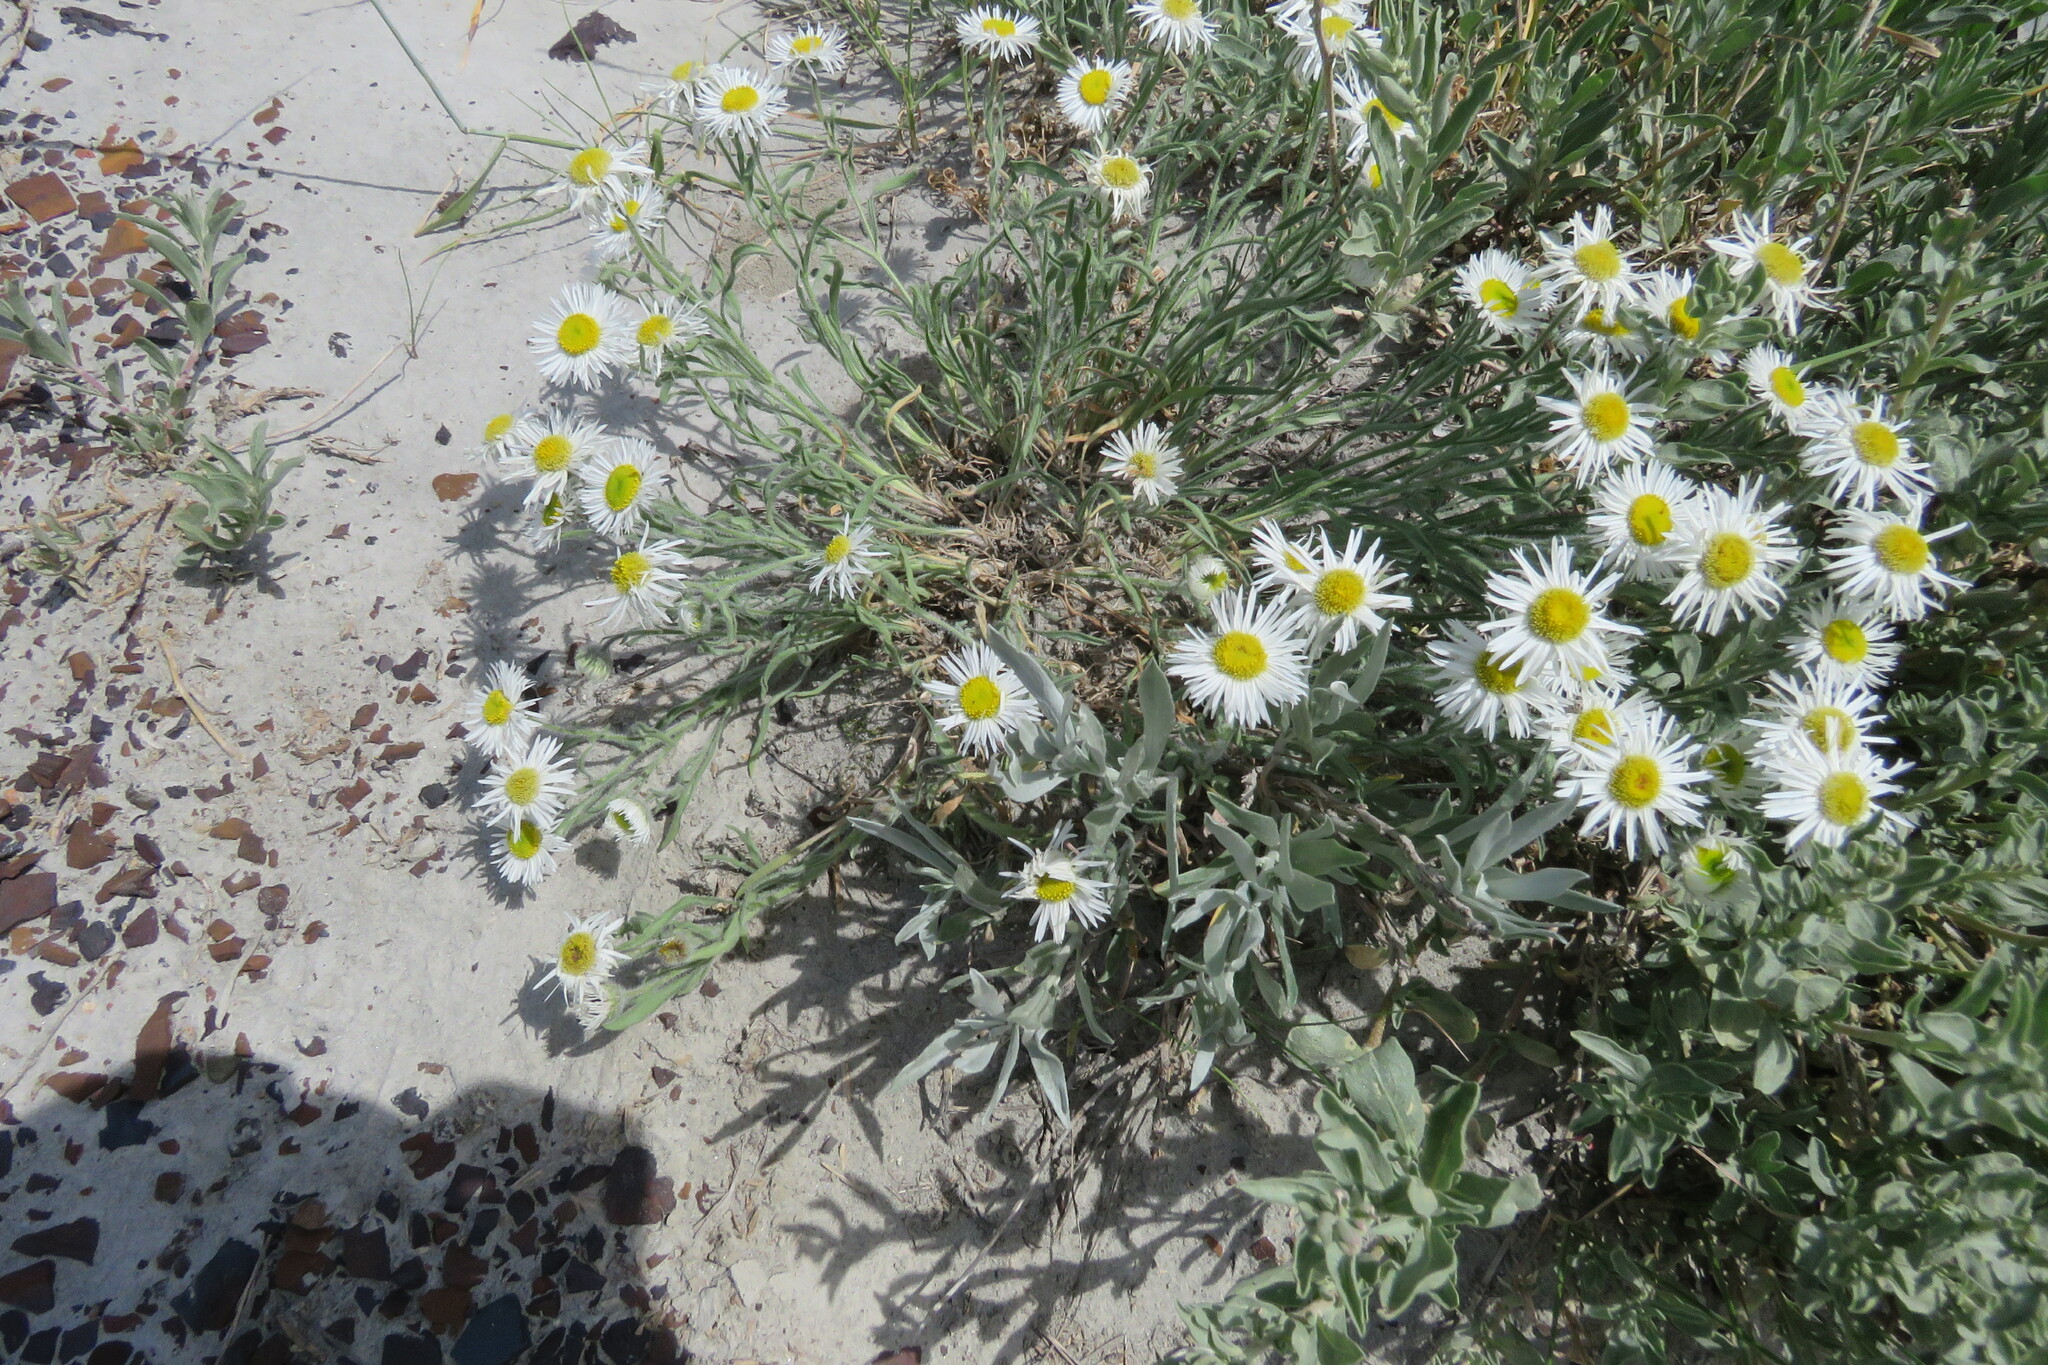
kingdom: Plantae
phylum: Tracheophyta
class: Magnoliopsida
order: Asterales
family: Asteraceae
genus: Erigeron
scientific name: Erigeron pumilus
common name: Shaggy fleabane
